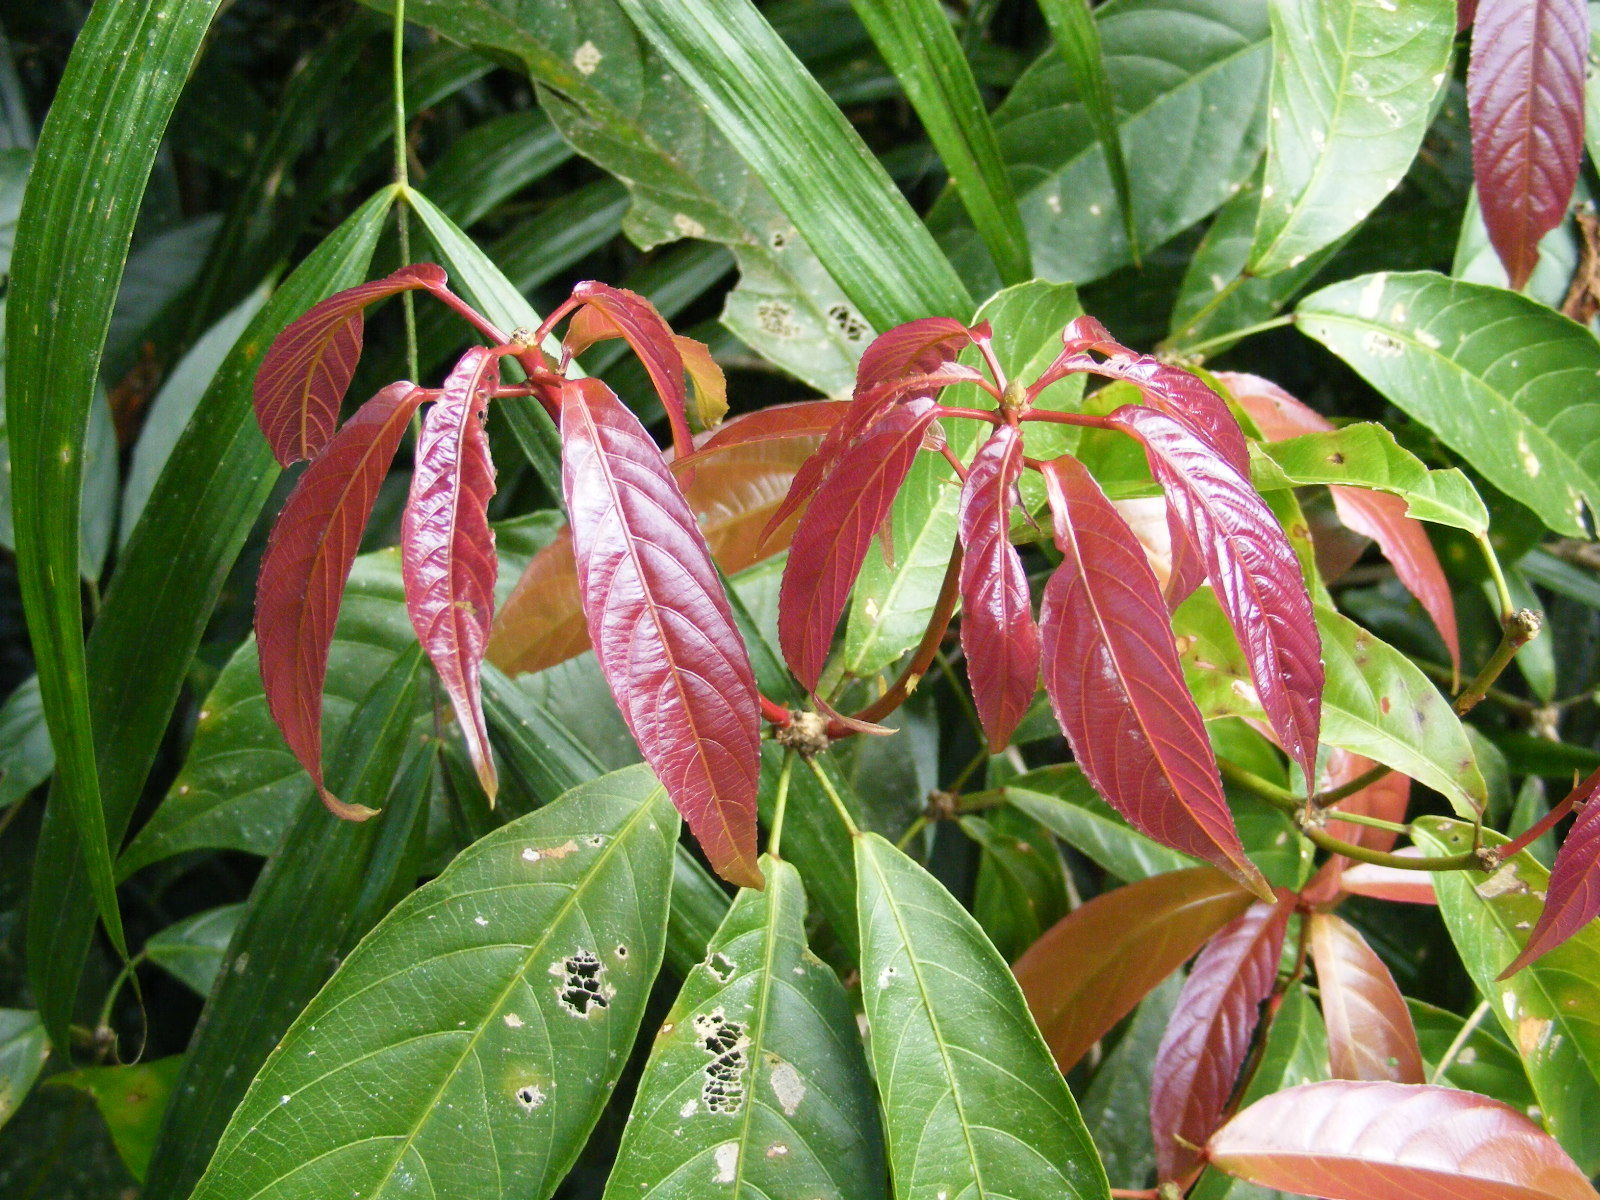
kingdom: Plantae
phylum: Tracheophyta
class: Magnoliopsida
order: Malpighiales
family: Euphorbiaceae
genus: Rockinghamia
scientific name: Rockinghamia angustifolia
